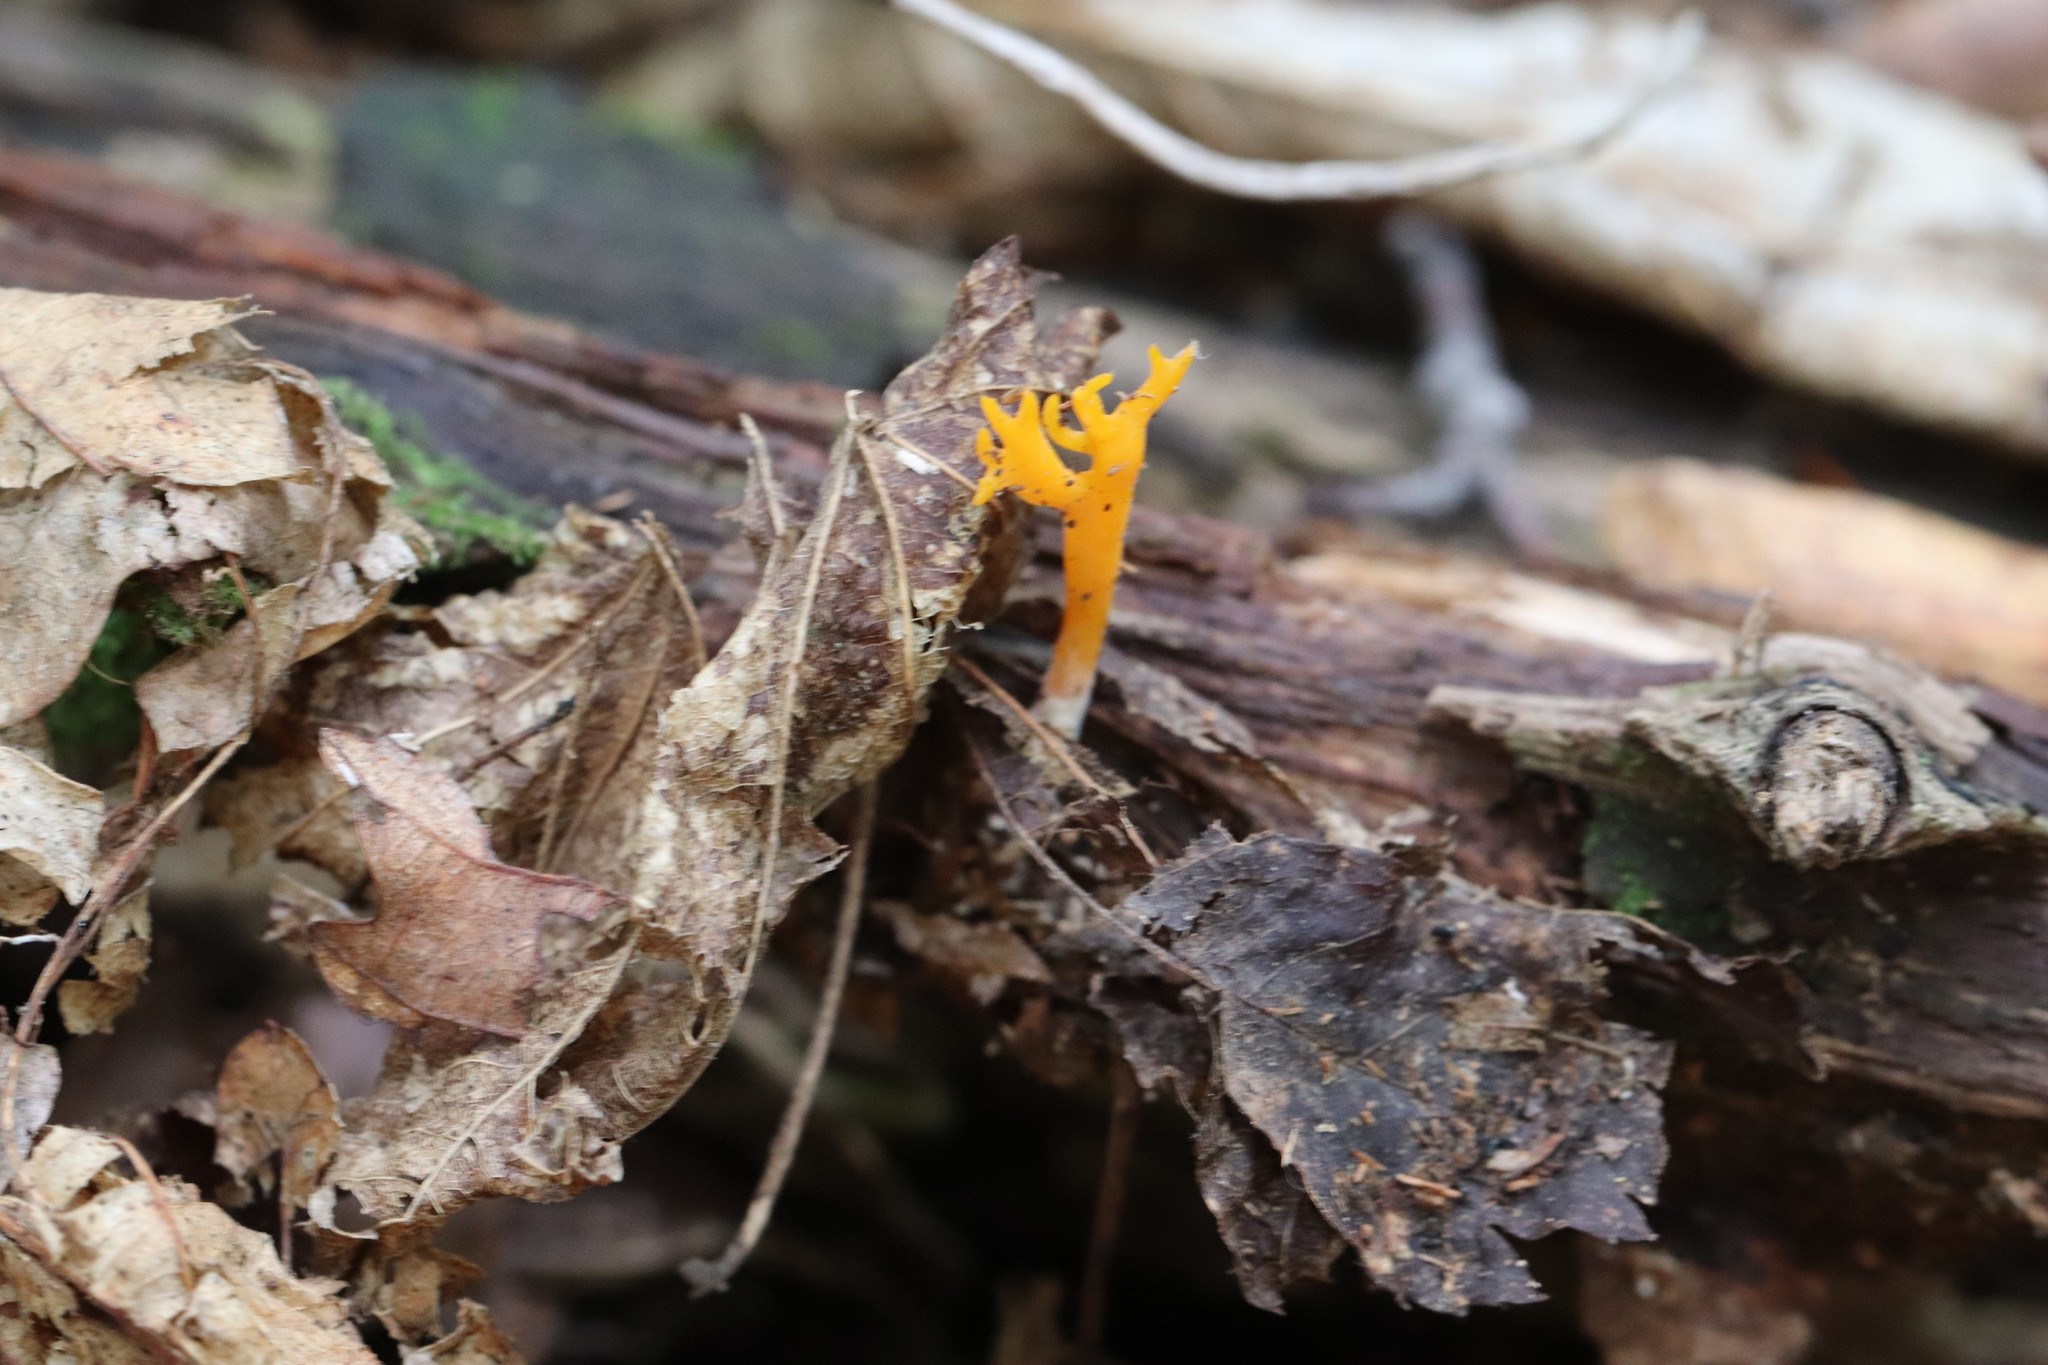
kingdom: Fungi
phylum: Basidiomycota
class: Dacrymycetes
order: Dacrymycetales
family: Dacrymycetaceae
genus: Calocera
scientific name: Calocera viscosa
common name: Yellow stagshorn
